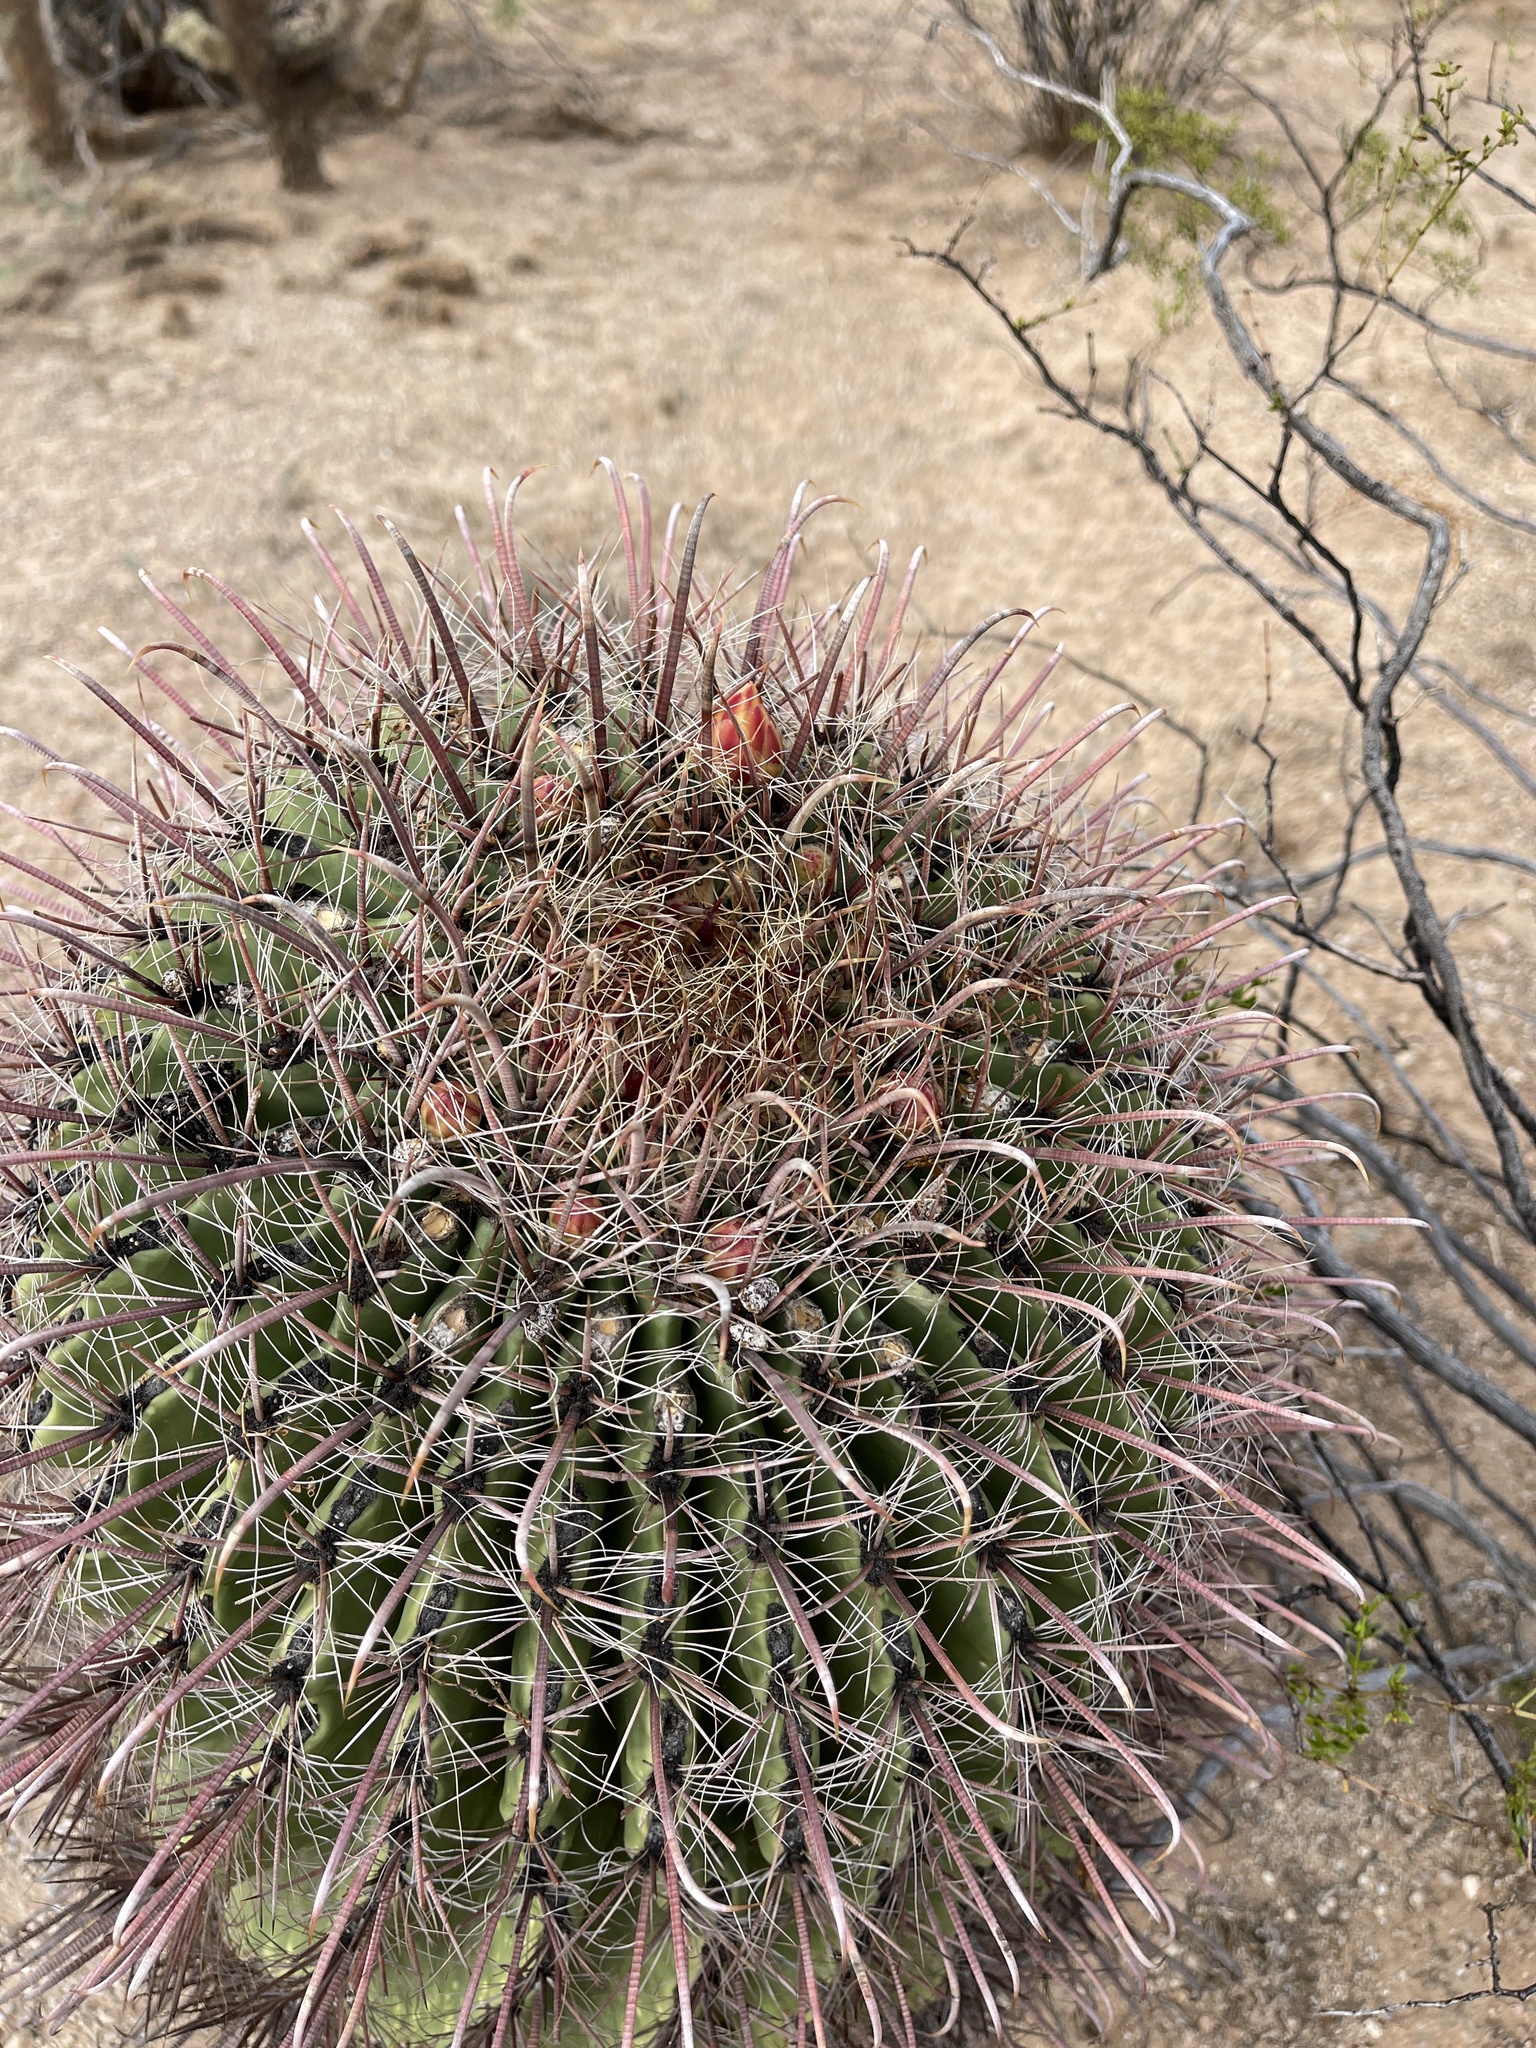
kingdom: Plantae
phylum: Tracheophyta
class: Magnoliopsida
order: Caryophyllales
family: Cactaceae
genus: Ferocactus
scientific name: Ferocactus wislizeni
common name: Candy barrel cactus
